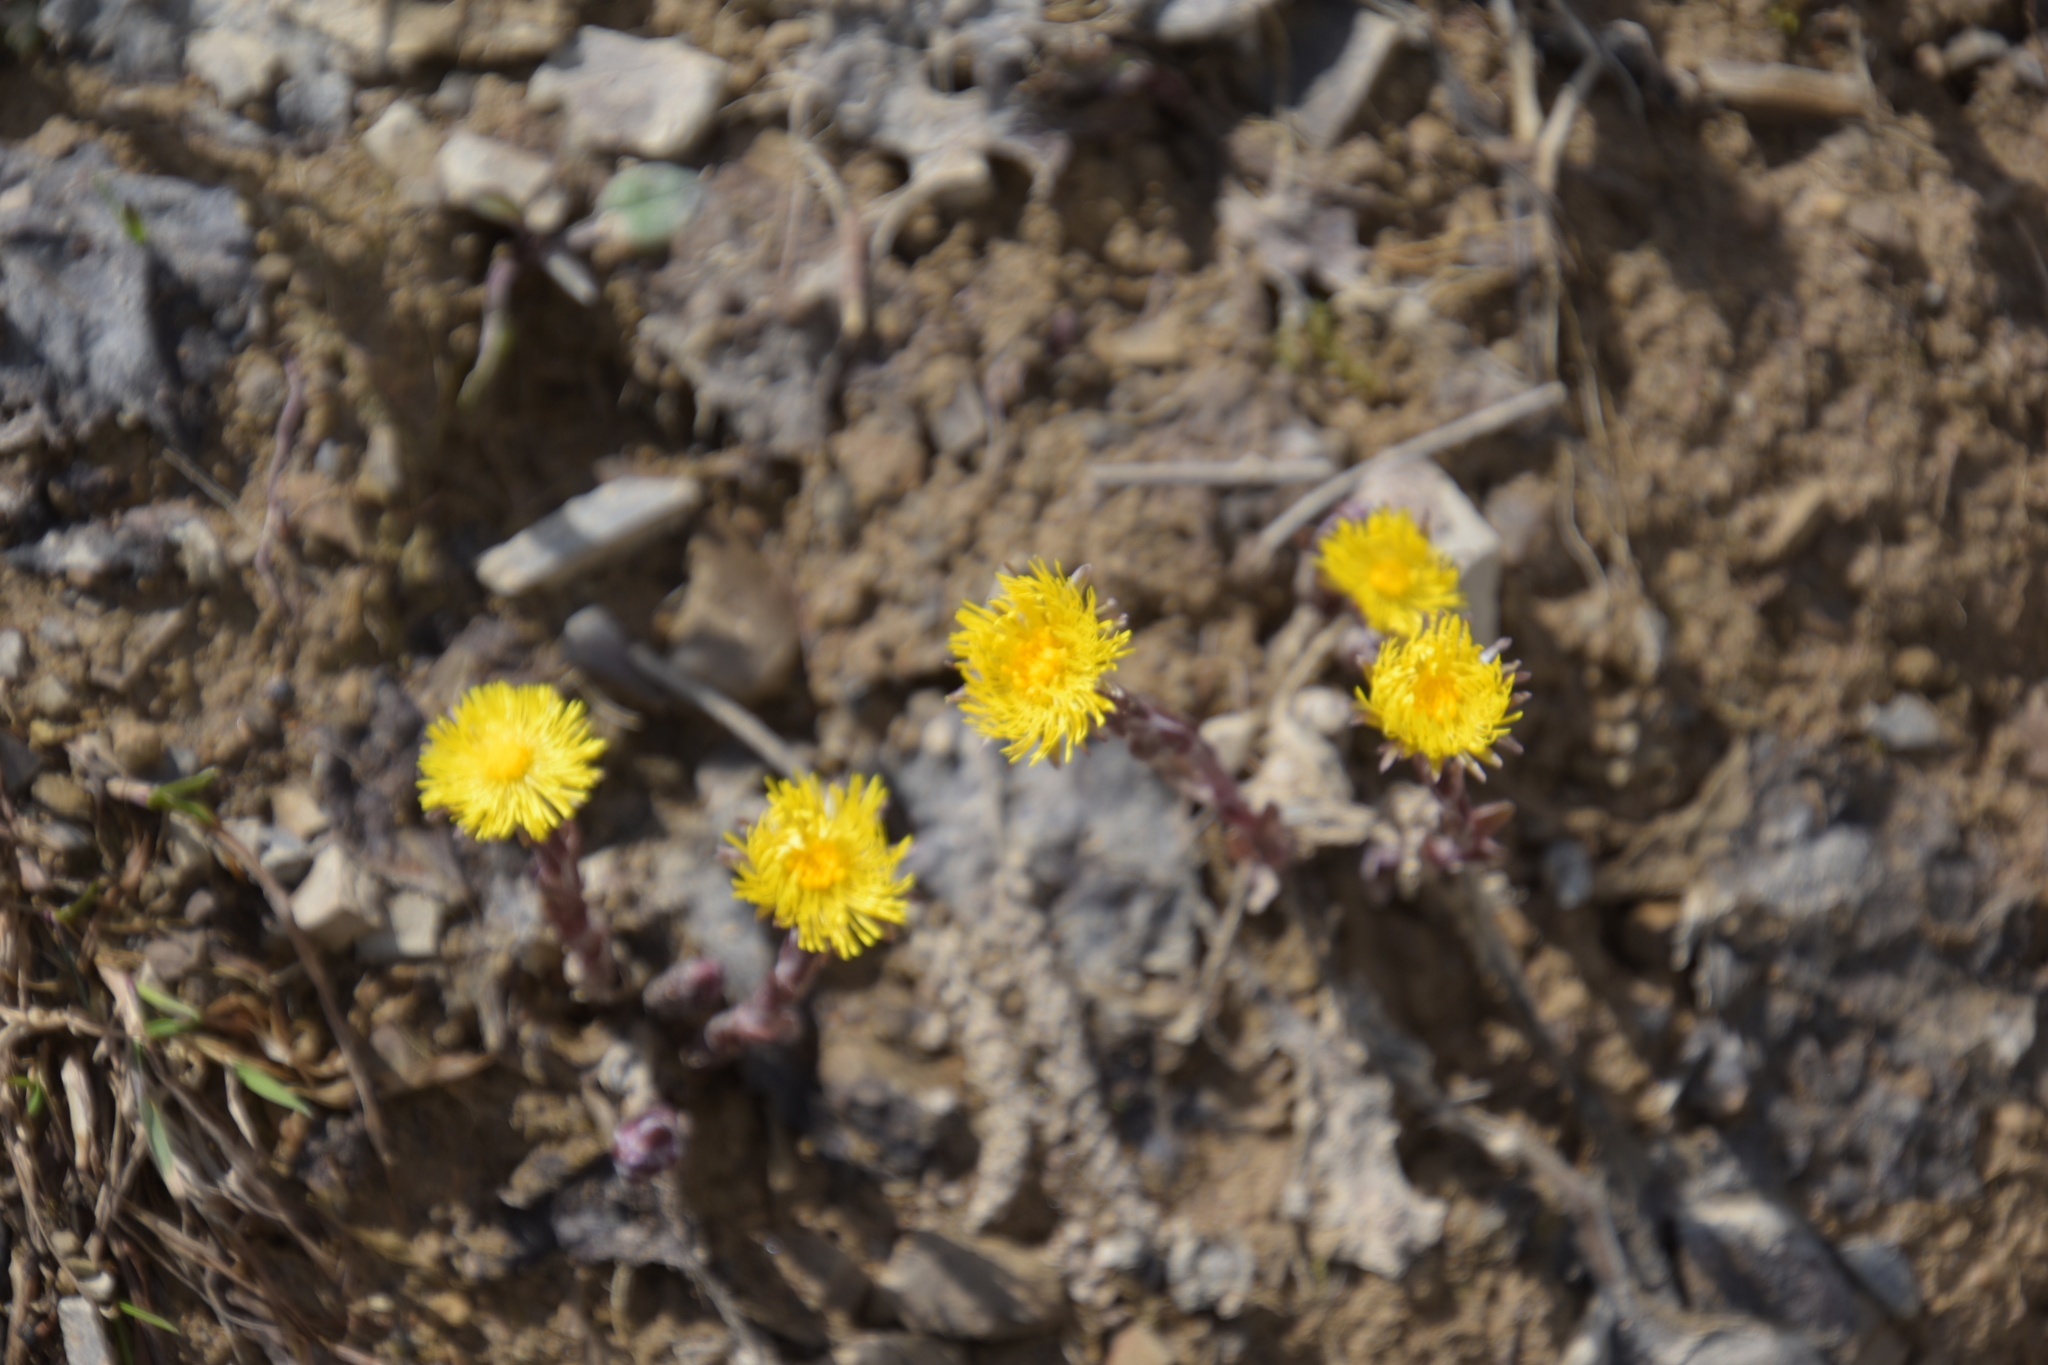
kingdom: Plantae
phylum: Tracheophyta
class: Magnoliopsida
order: Asterales
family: Asteraceae
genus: Tussilago
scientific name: Tussilago farfara
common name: Coltsfoot
